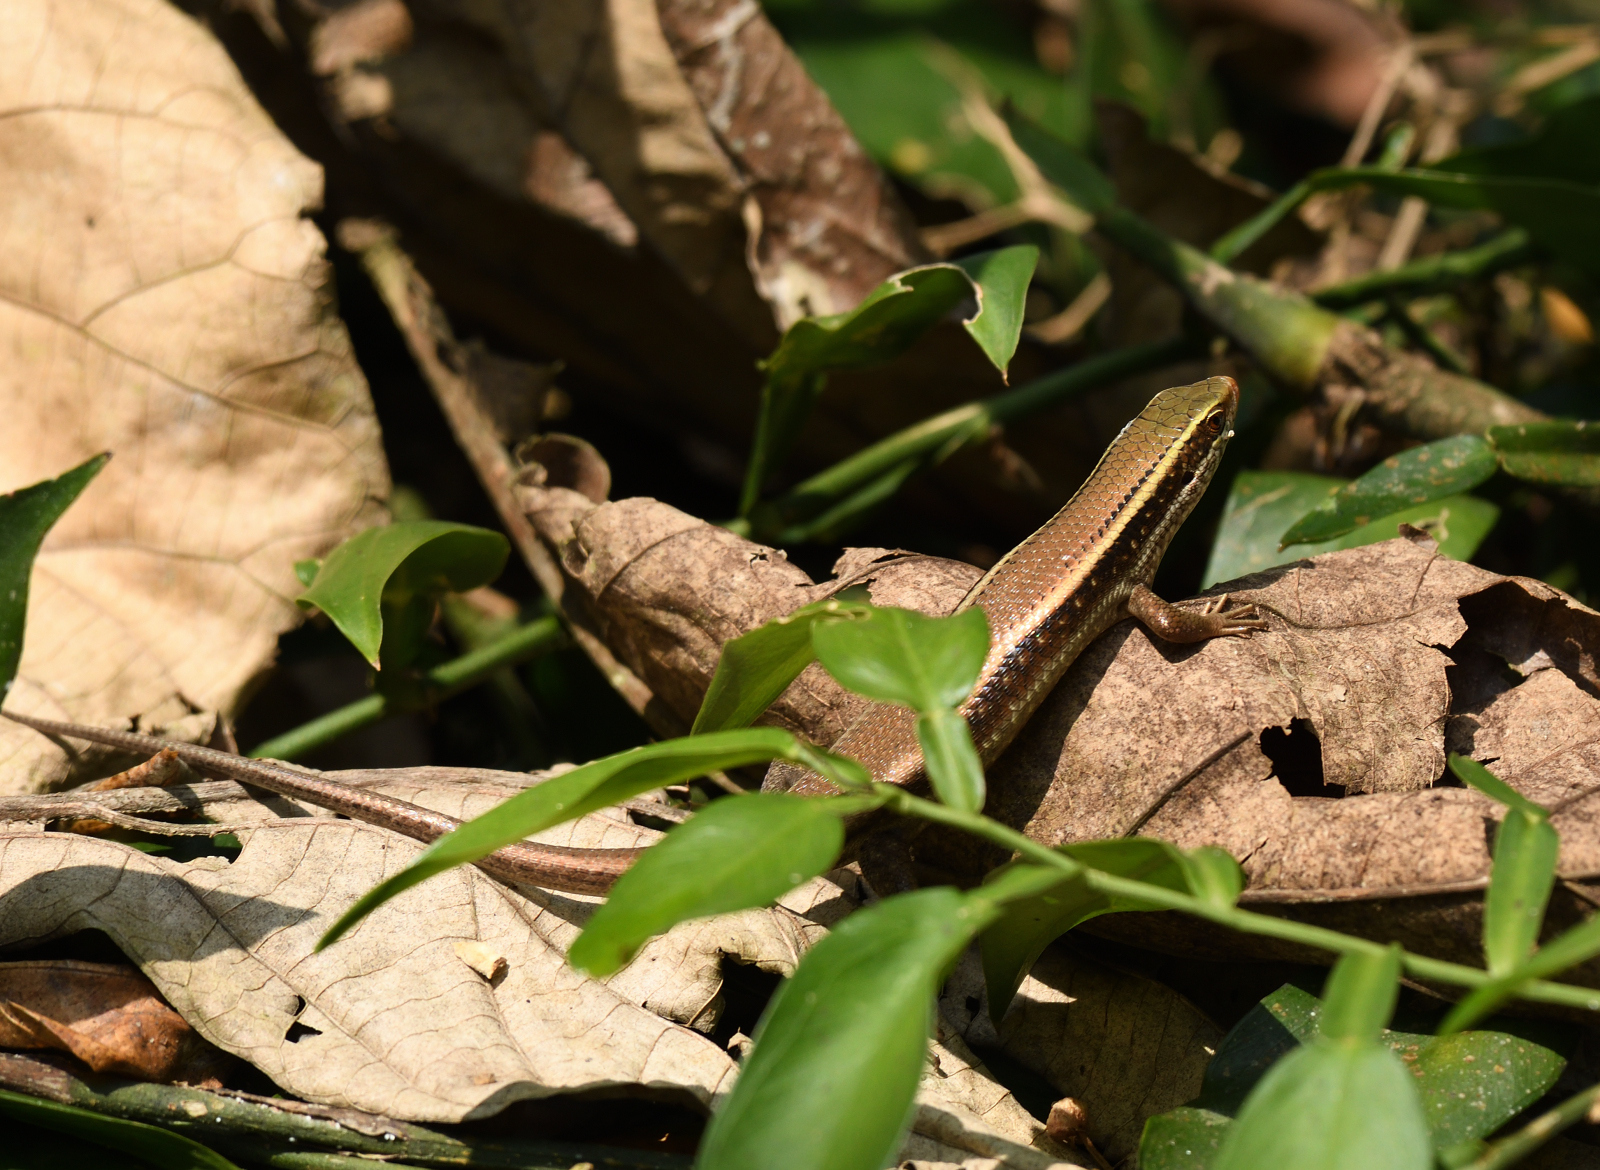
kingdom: Animalia
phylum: Chordata
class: Squamata
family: Scincidae
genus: Eutropis
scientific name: Eutropis carinata
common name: Keeled indian mabuya
